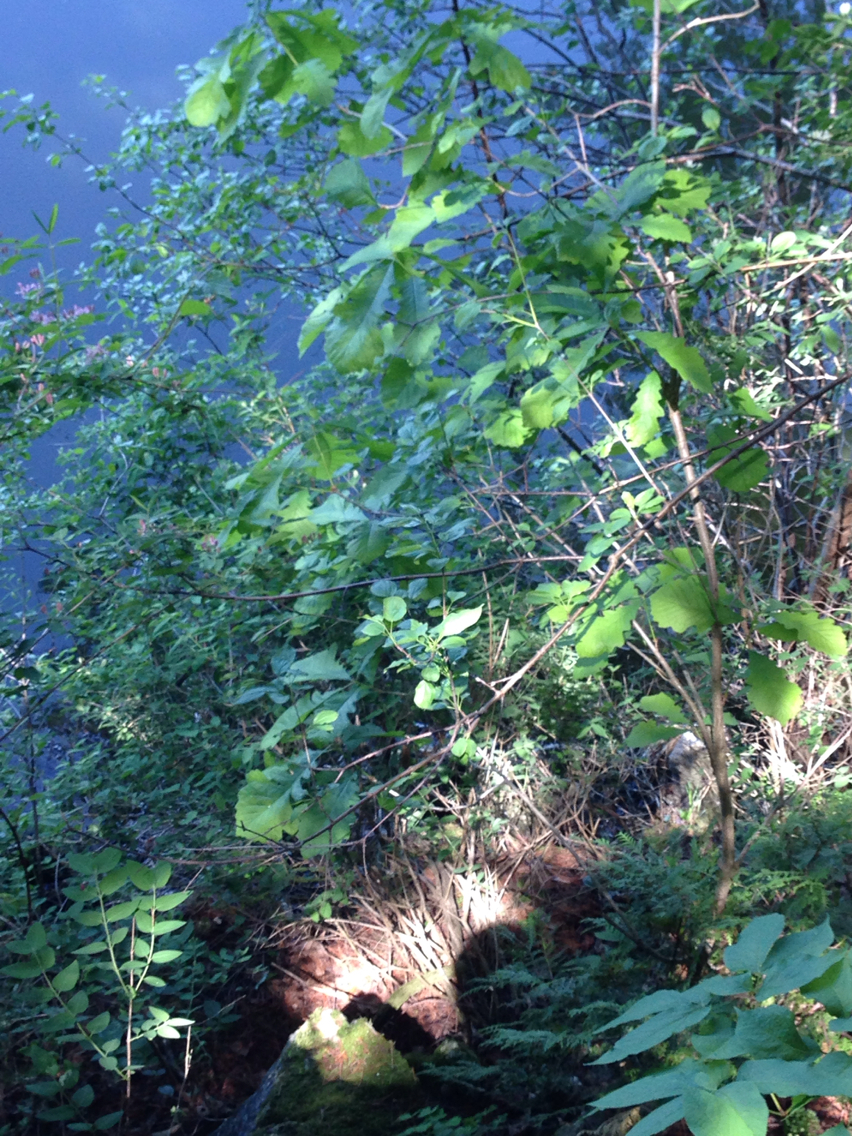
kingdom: Plantae
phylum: Tracheophyta
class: Magnoliopsida
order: Fagales
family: Fagaceae
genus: Quercus
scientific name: Quercus macrocarpa
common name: Bur oak
